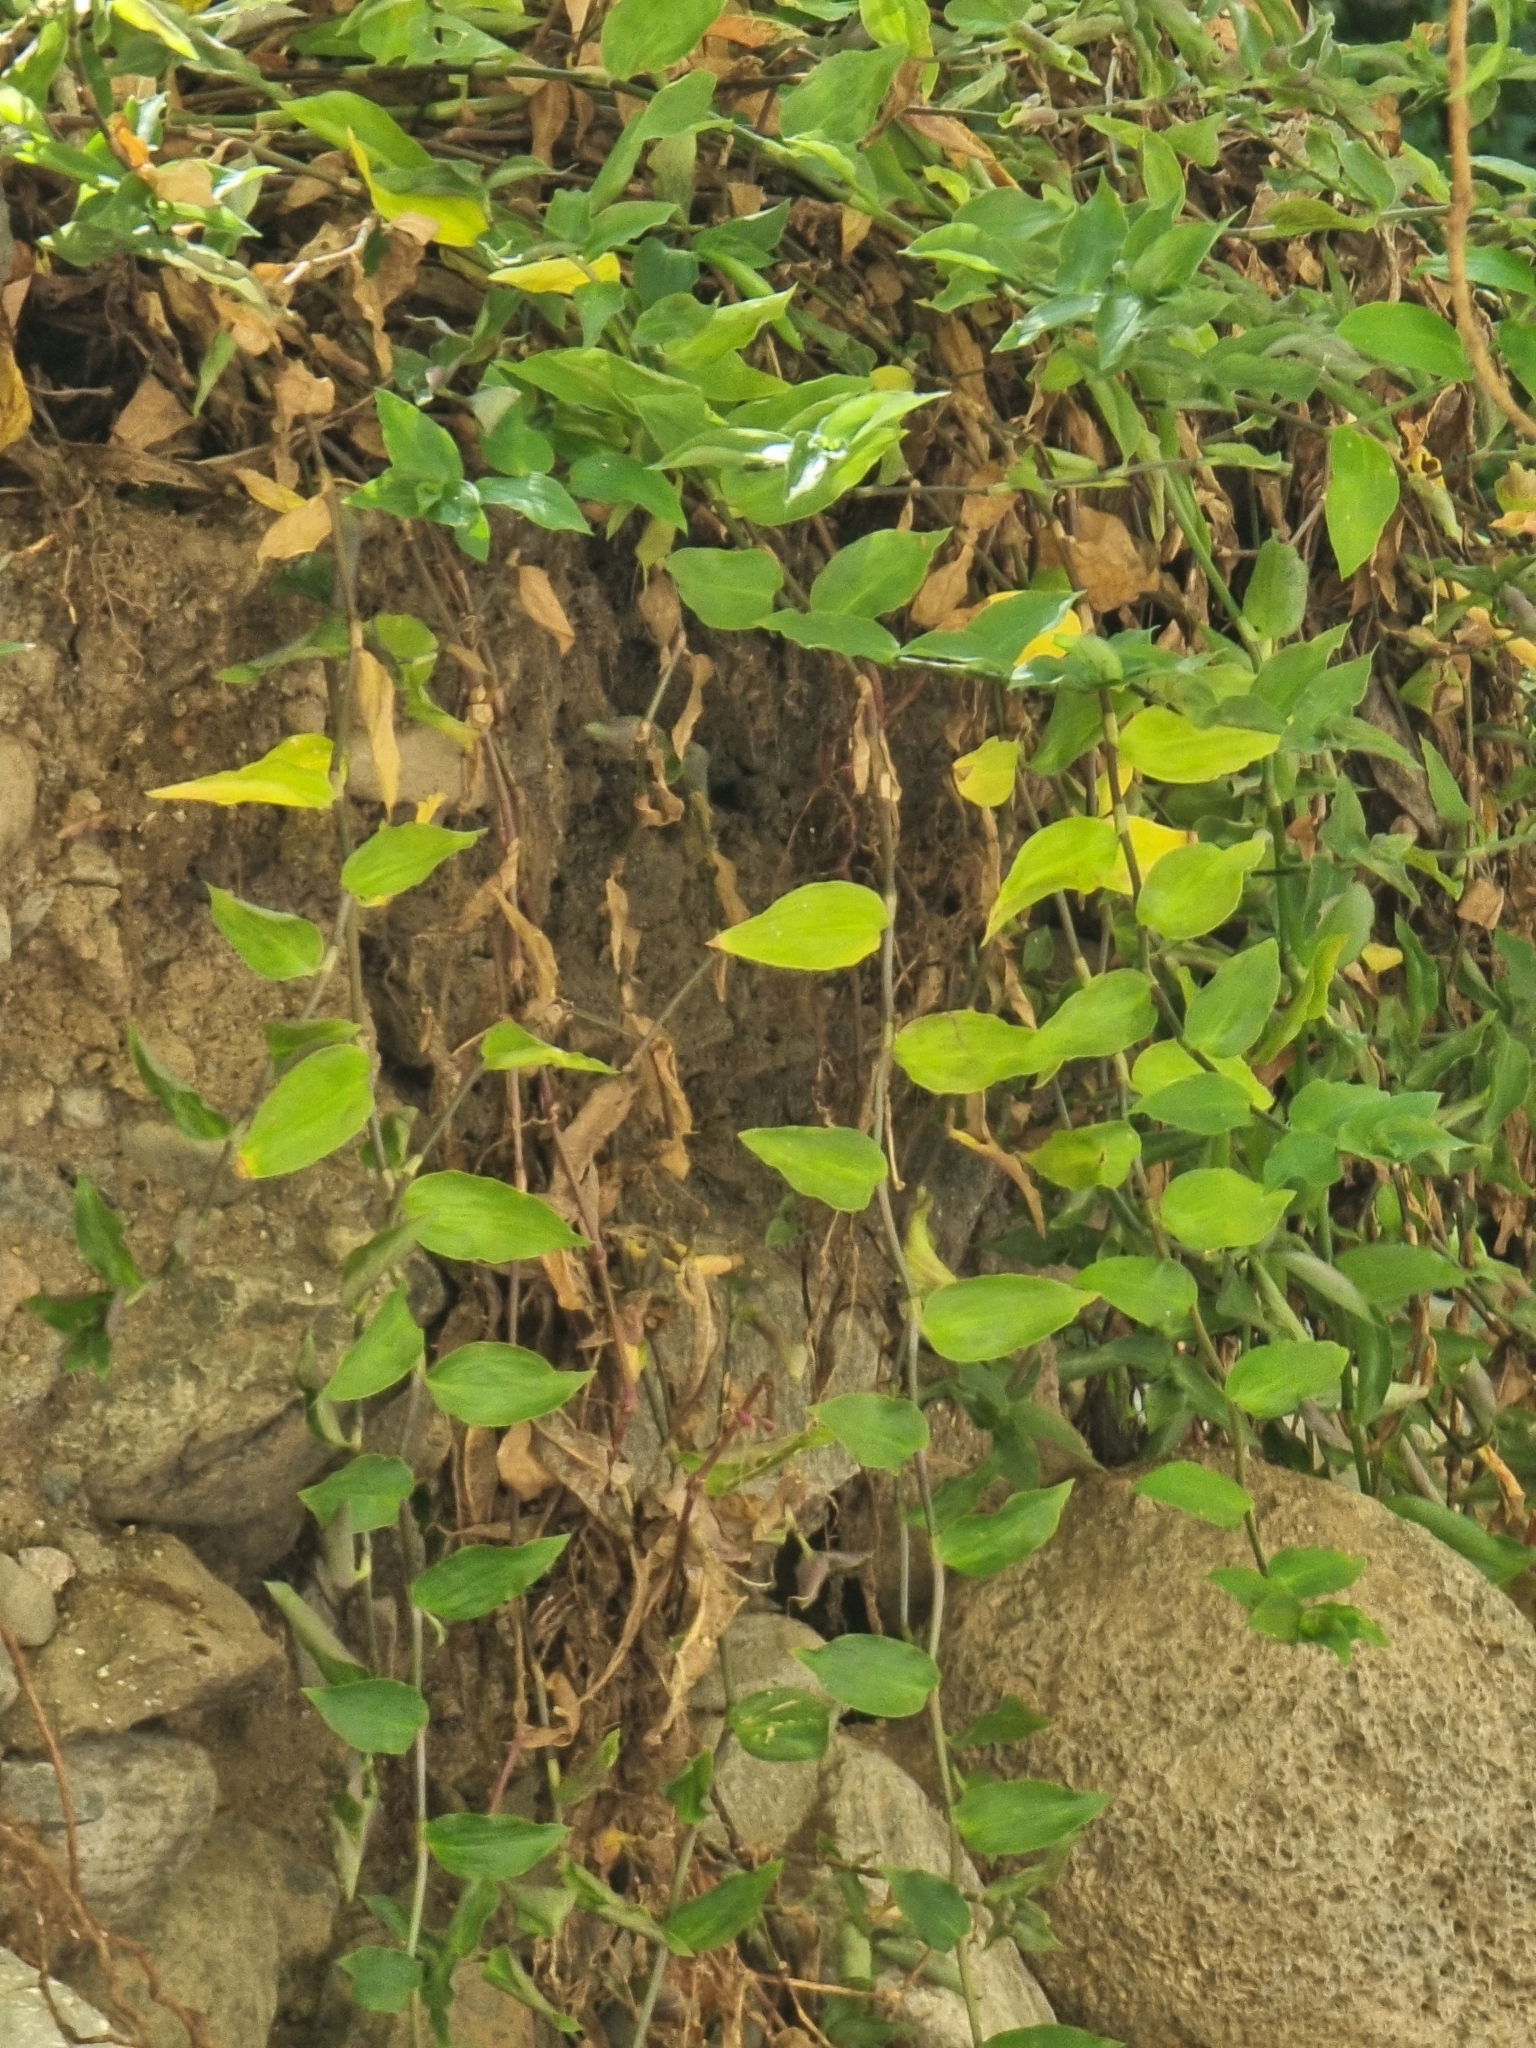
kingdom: Plantae
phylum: Tracheophyta
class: Liliopsida
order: Commelinales
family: Commelinaceae
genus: Tradescantia
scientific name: Tradescantia fluminensis
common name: Wandering-jew
